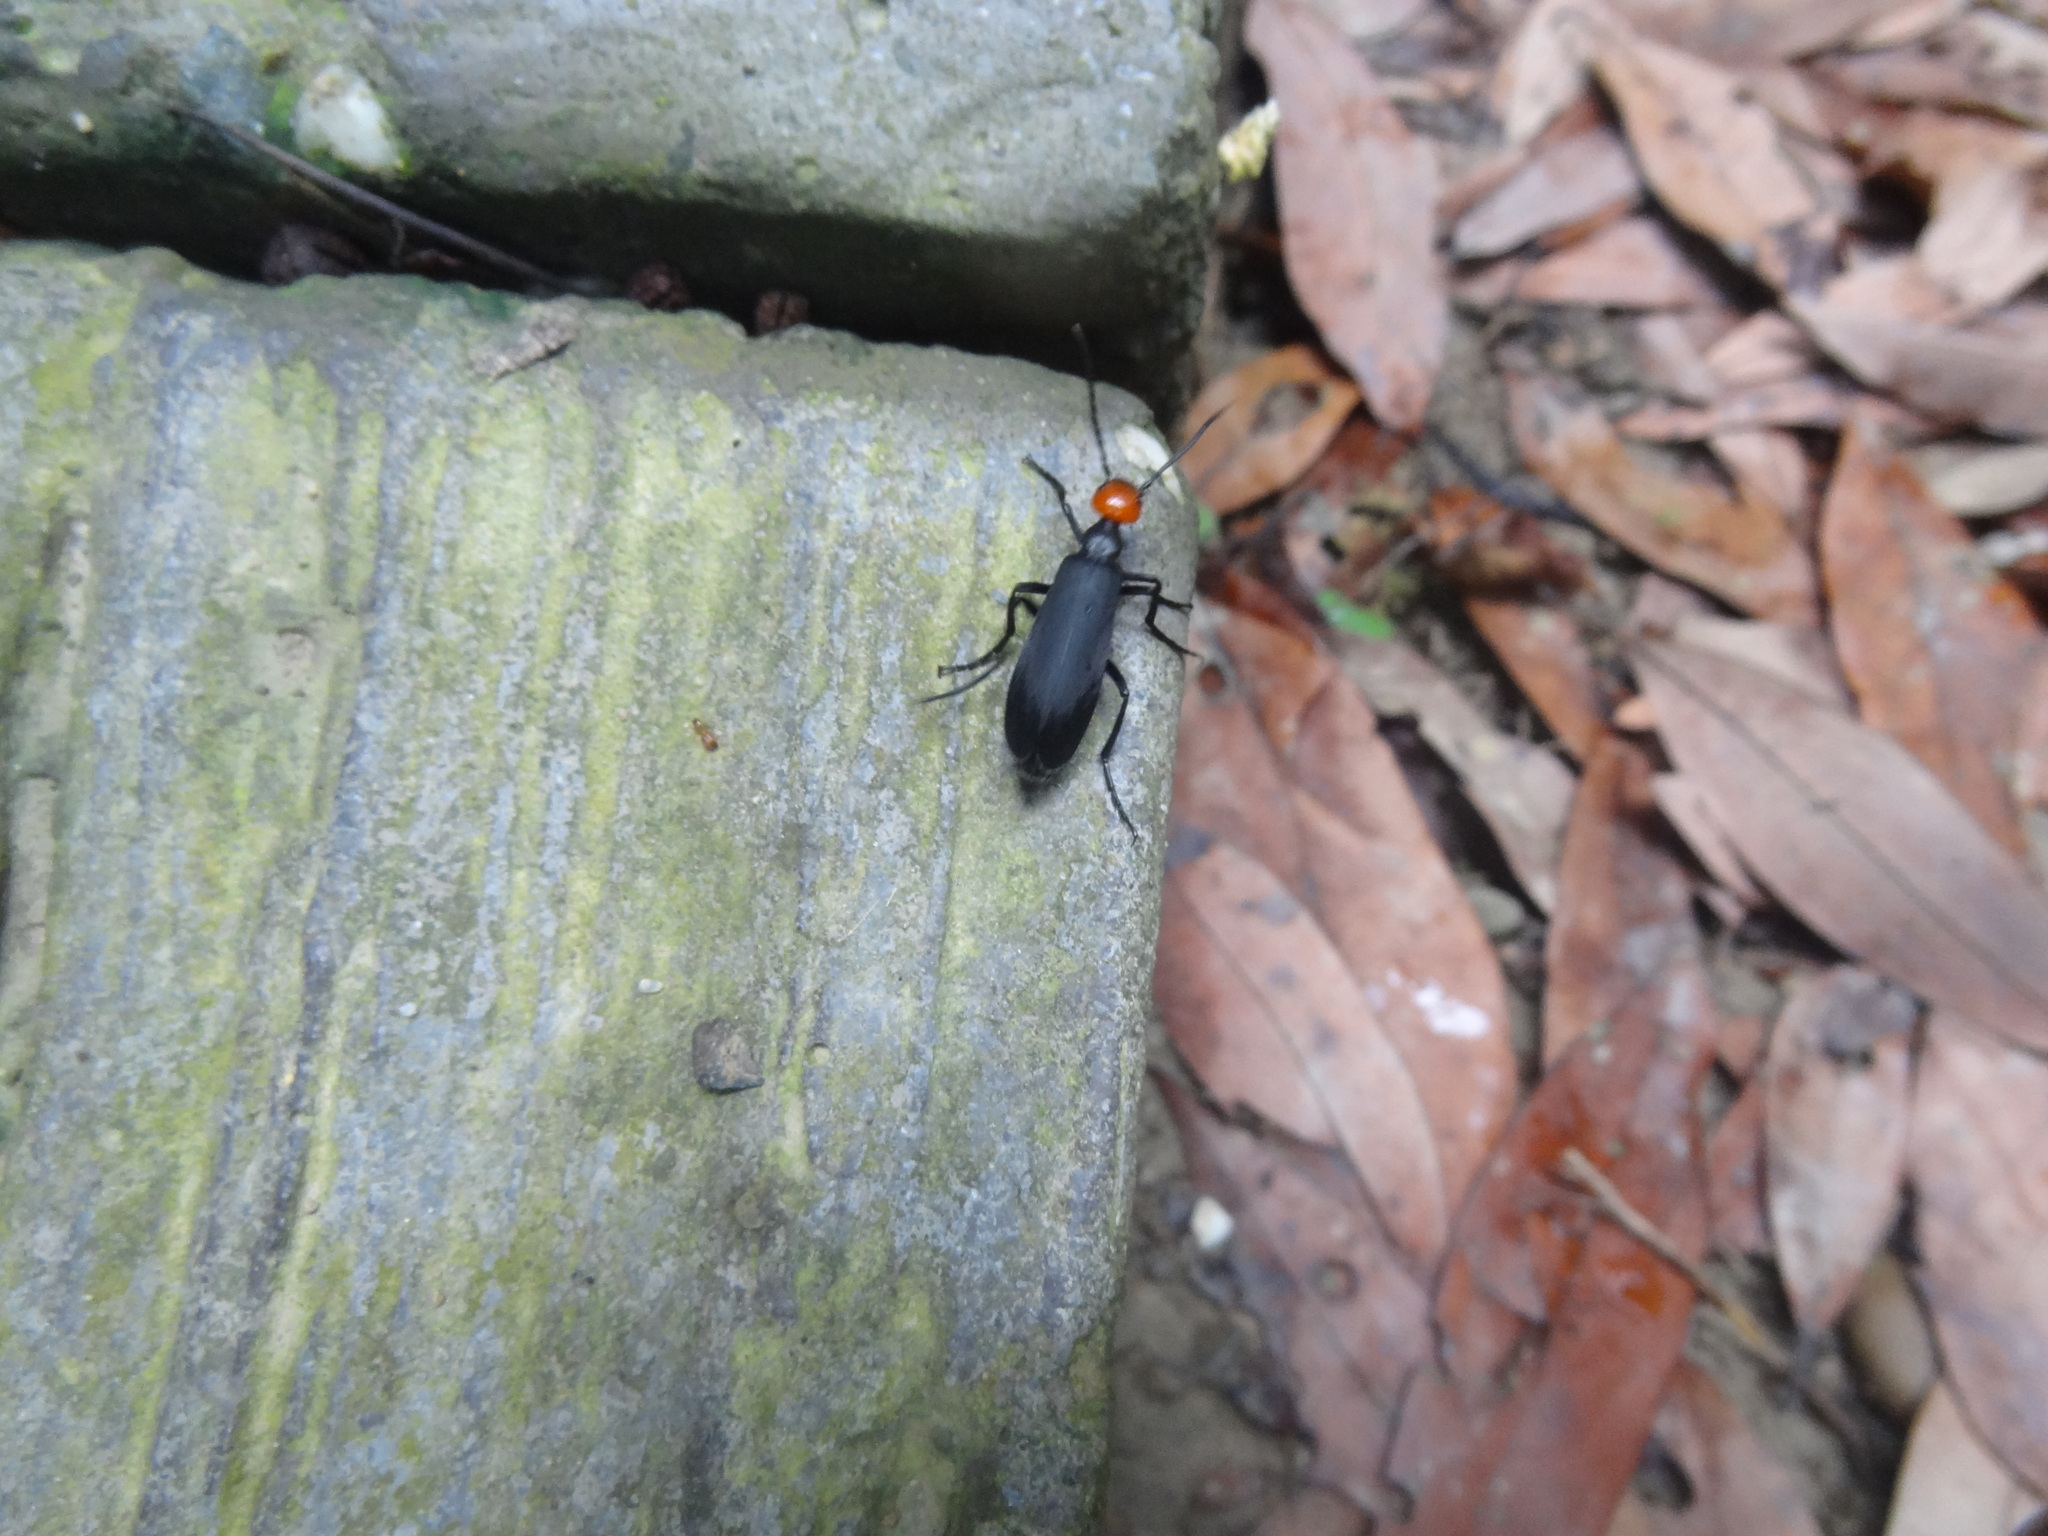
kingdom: Animalia
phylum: Arthropoda
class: Insecta
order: Coleoptera
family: Meloidae
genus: Epicauta
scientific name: Epicauta hirticornis
